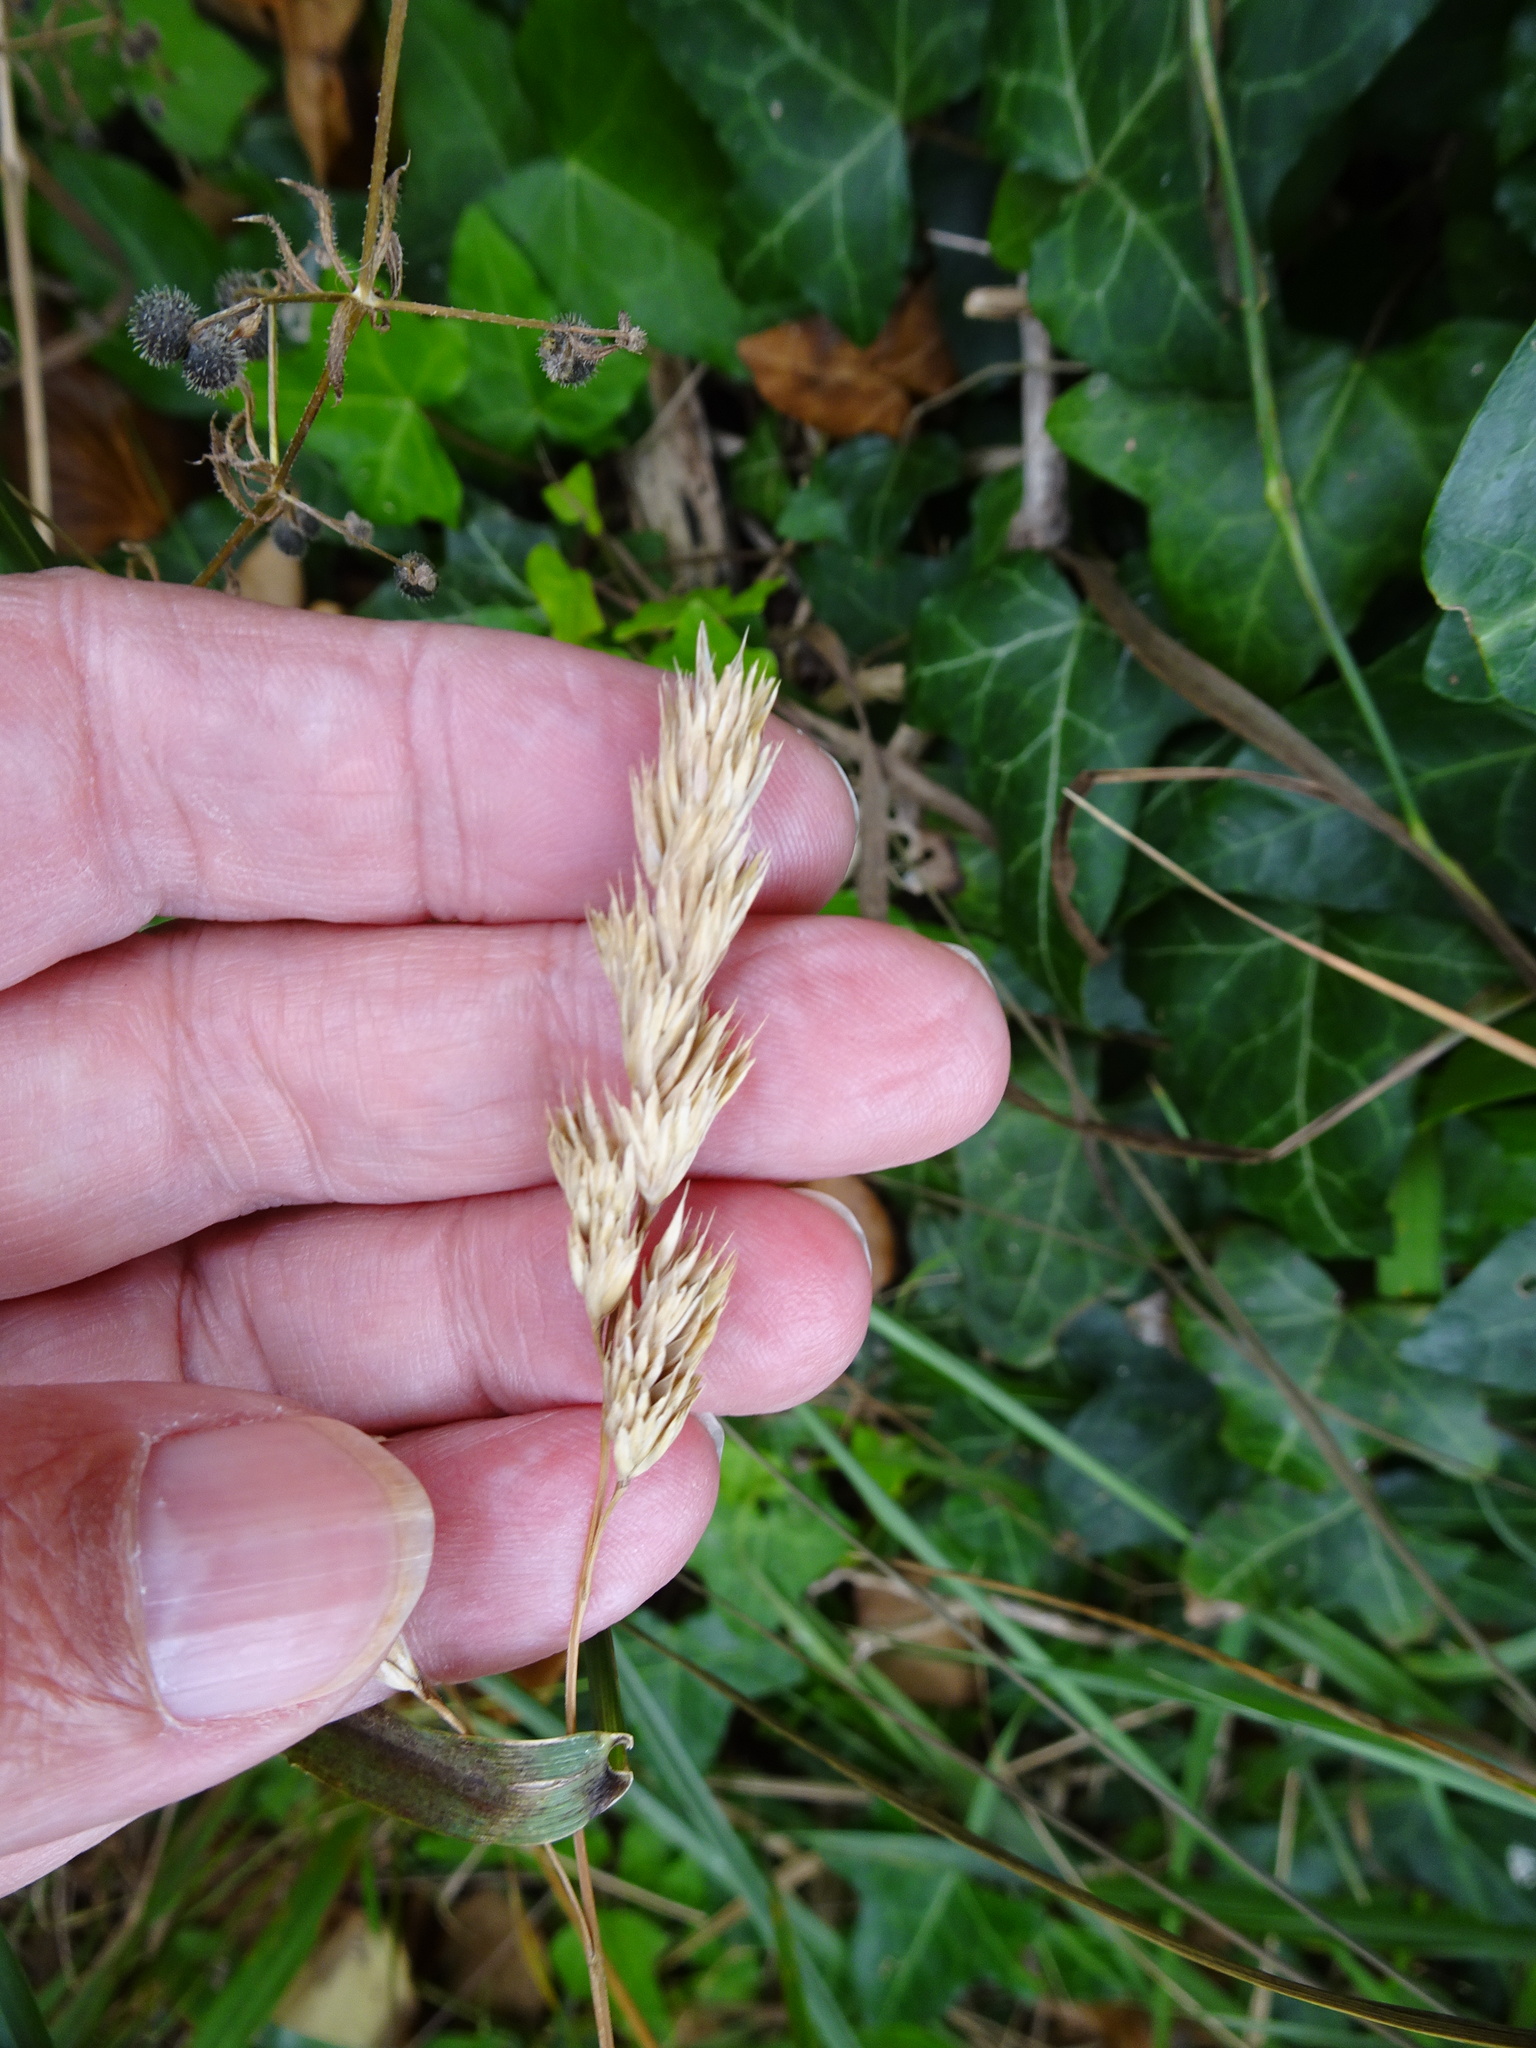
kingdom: Plantae
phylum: Tracheophyta
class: Liliopsida
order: Poales
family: Poaceae
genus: Dactylis
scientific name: Dactylis glomerata
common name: Orchardgrass
